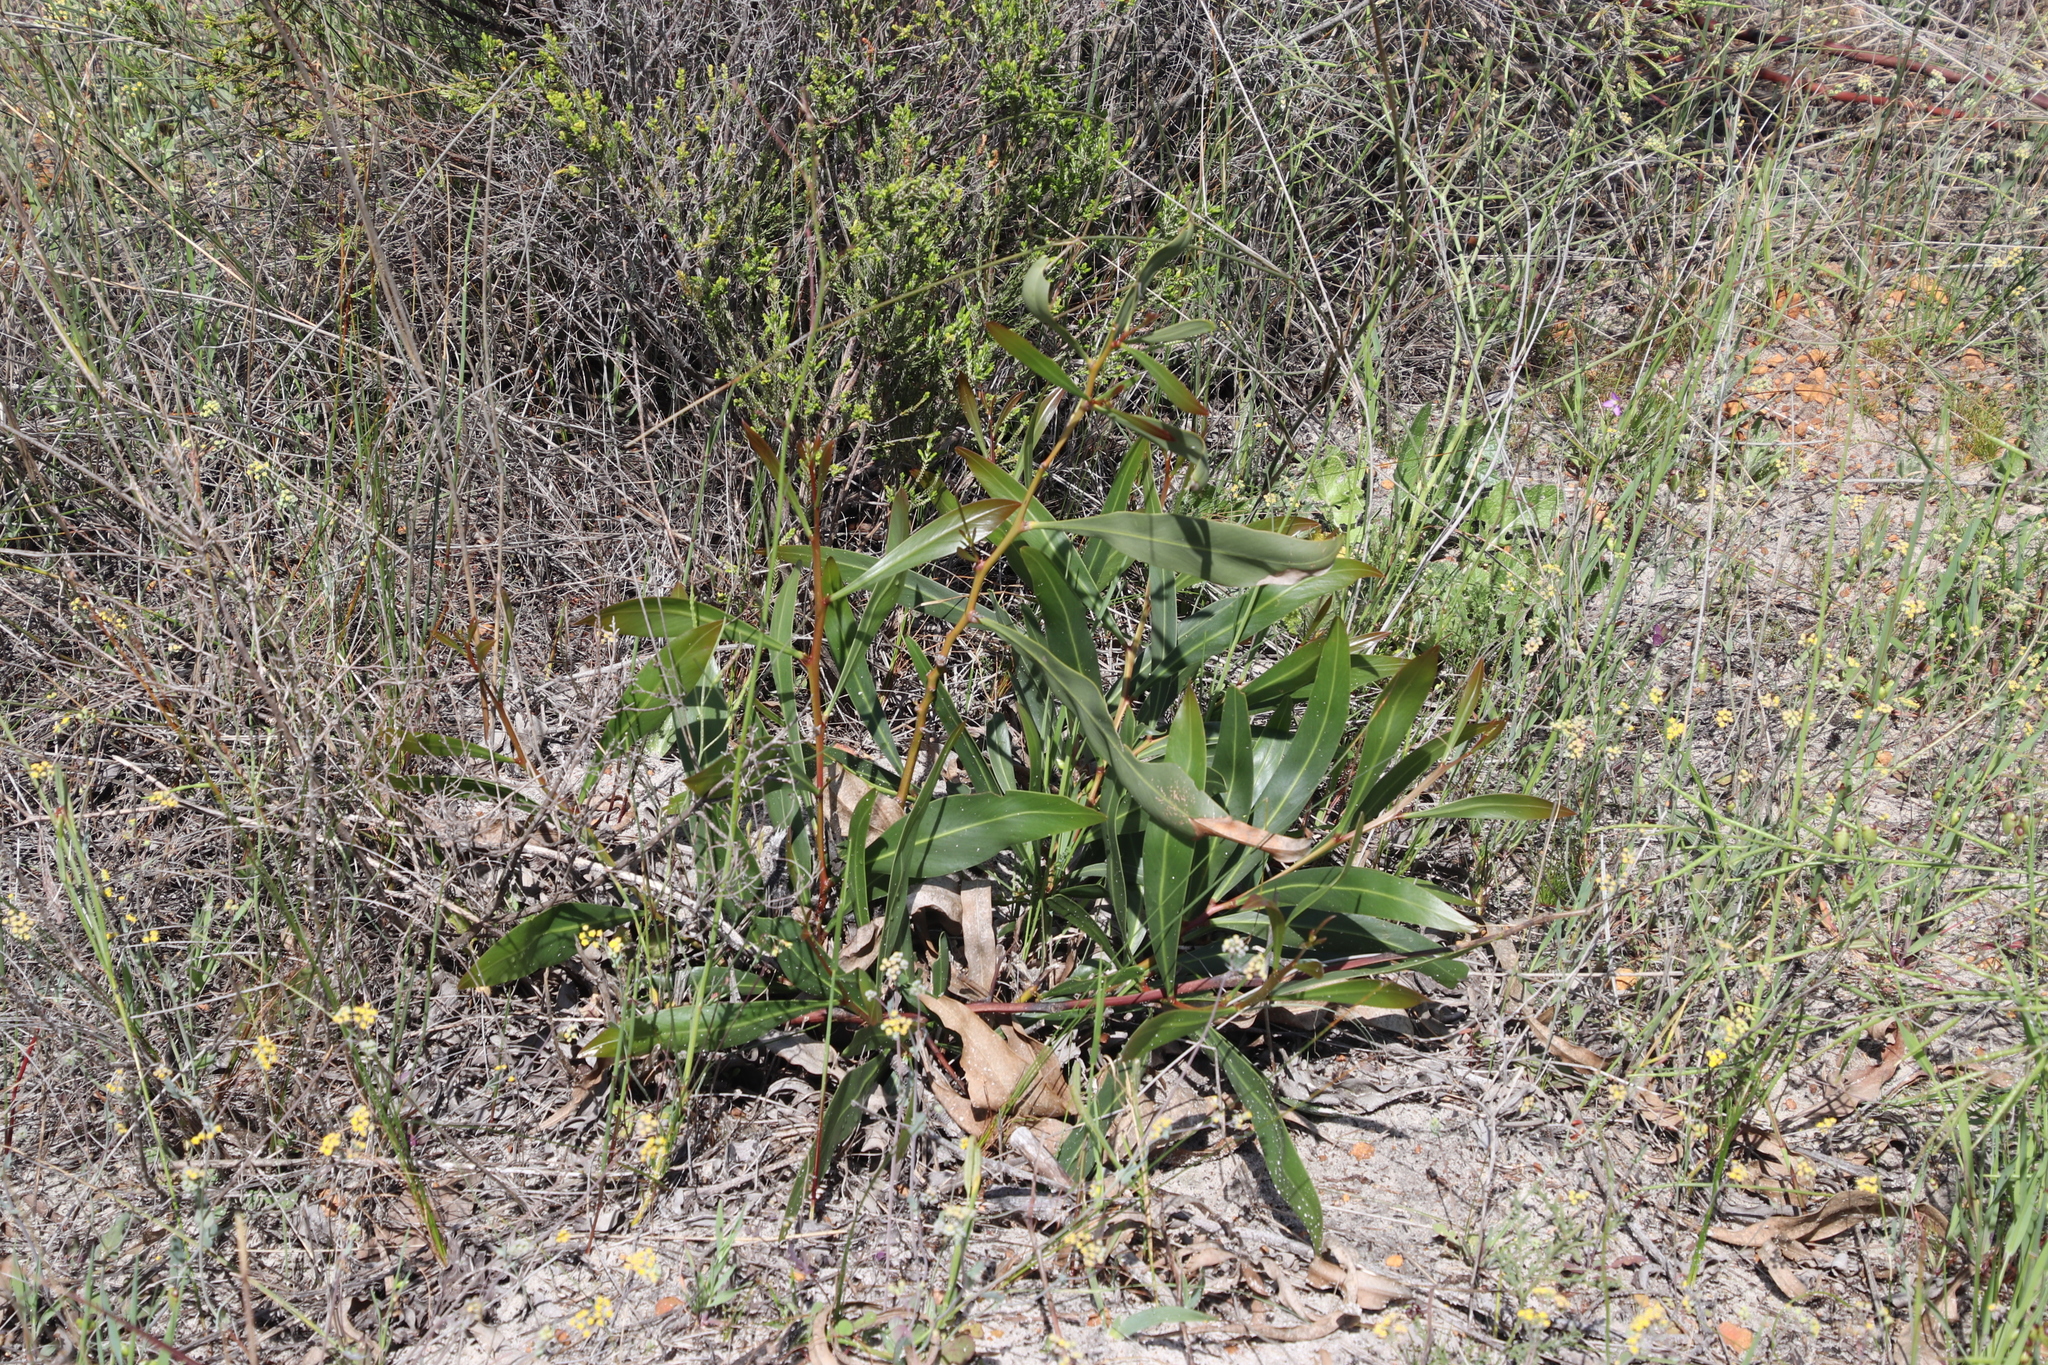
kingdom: Plantae
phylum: Tracheophyta
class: Magnoliopsida
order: Fabales
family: Fabaceae
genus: Acacia
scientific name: Acacia saligna
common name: Orange wattle
